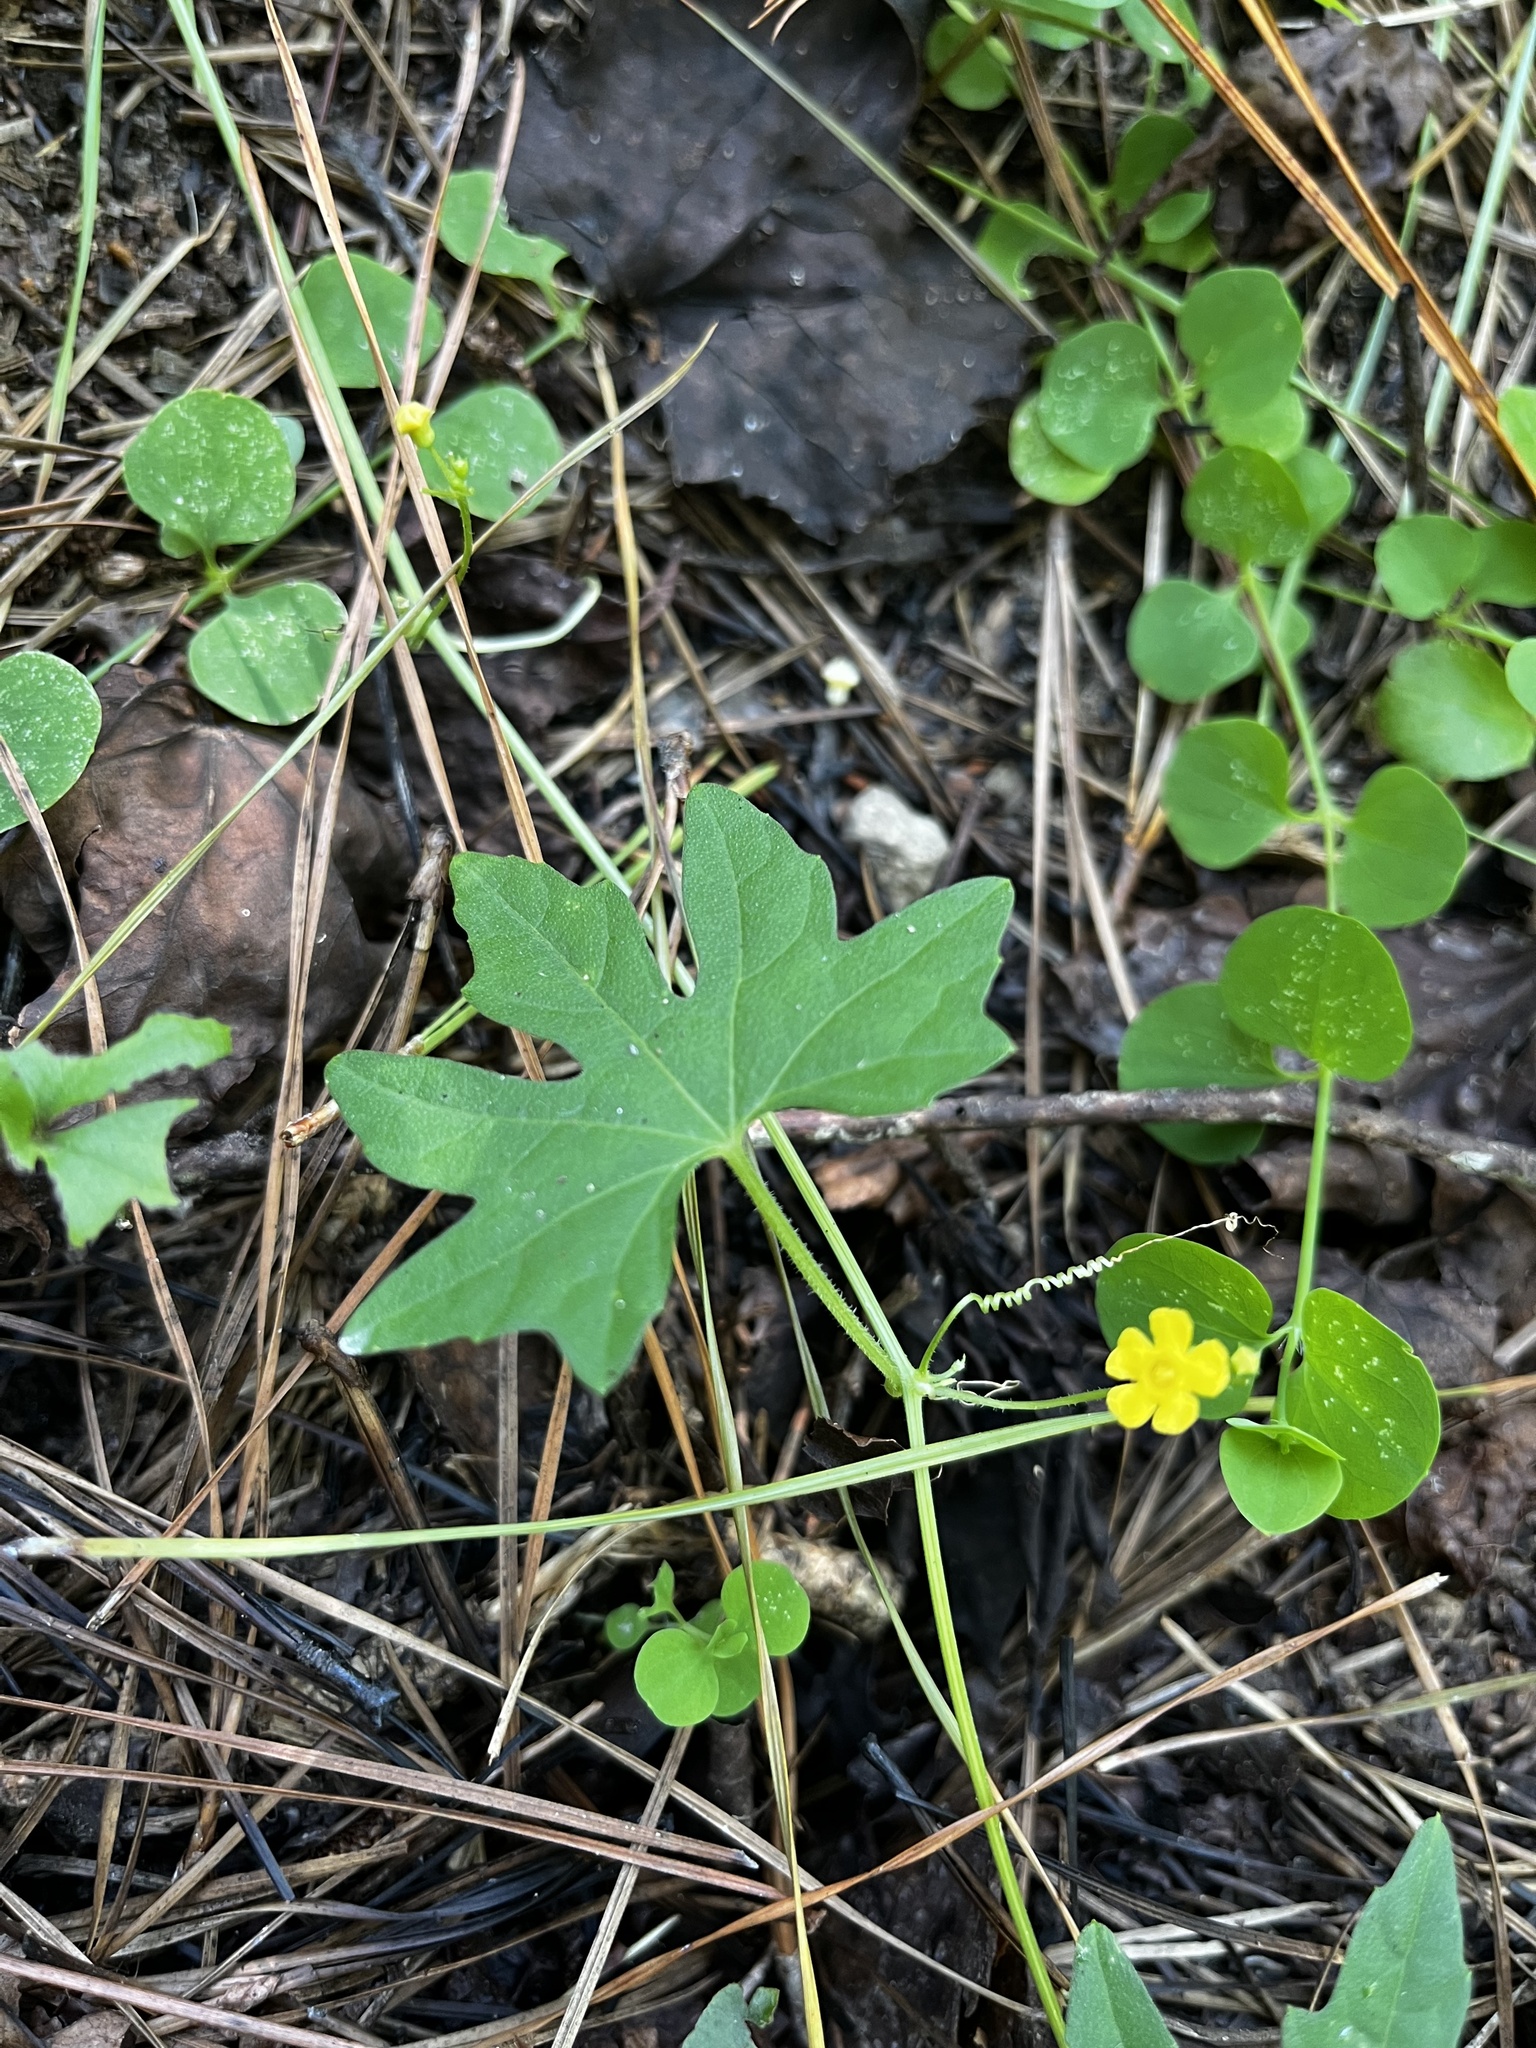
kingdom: Plantae
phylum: Tracheophyta
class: Magnoliopsida
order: Cucurbitales
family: Cucurbitaceae
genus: Melothria
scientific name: Melothria pendula
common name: Creeping-cucumber
